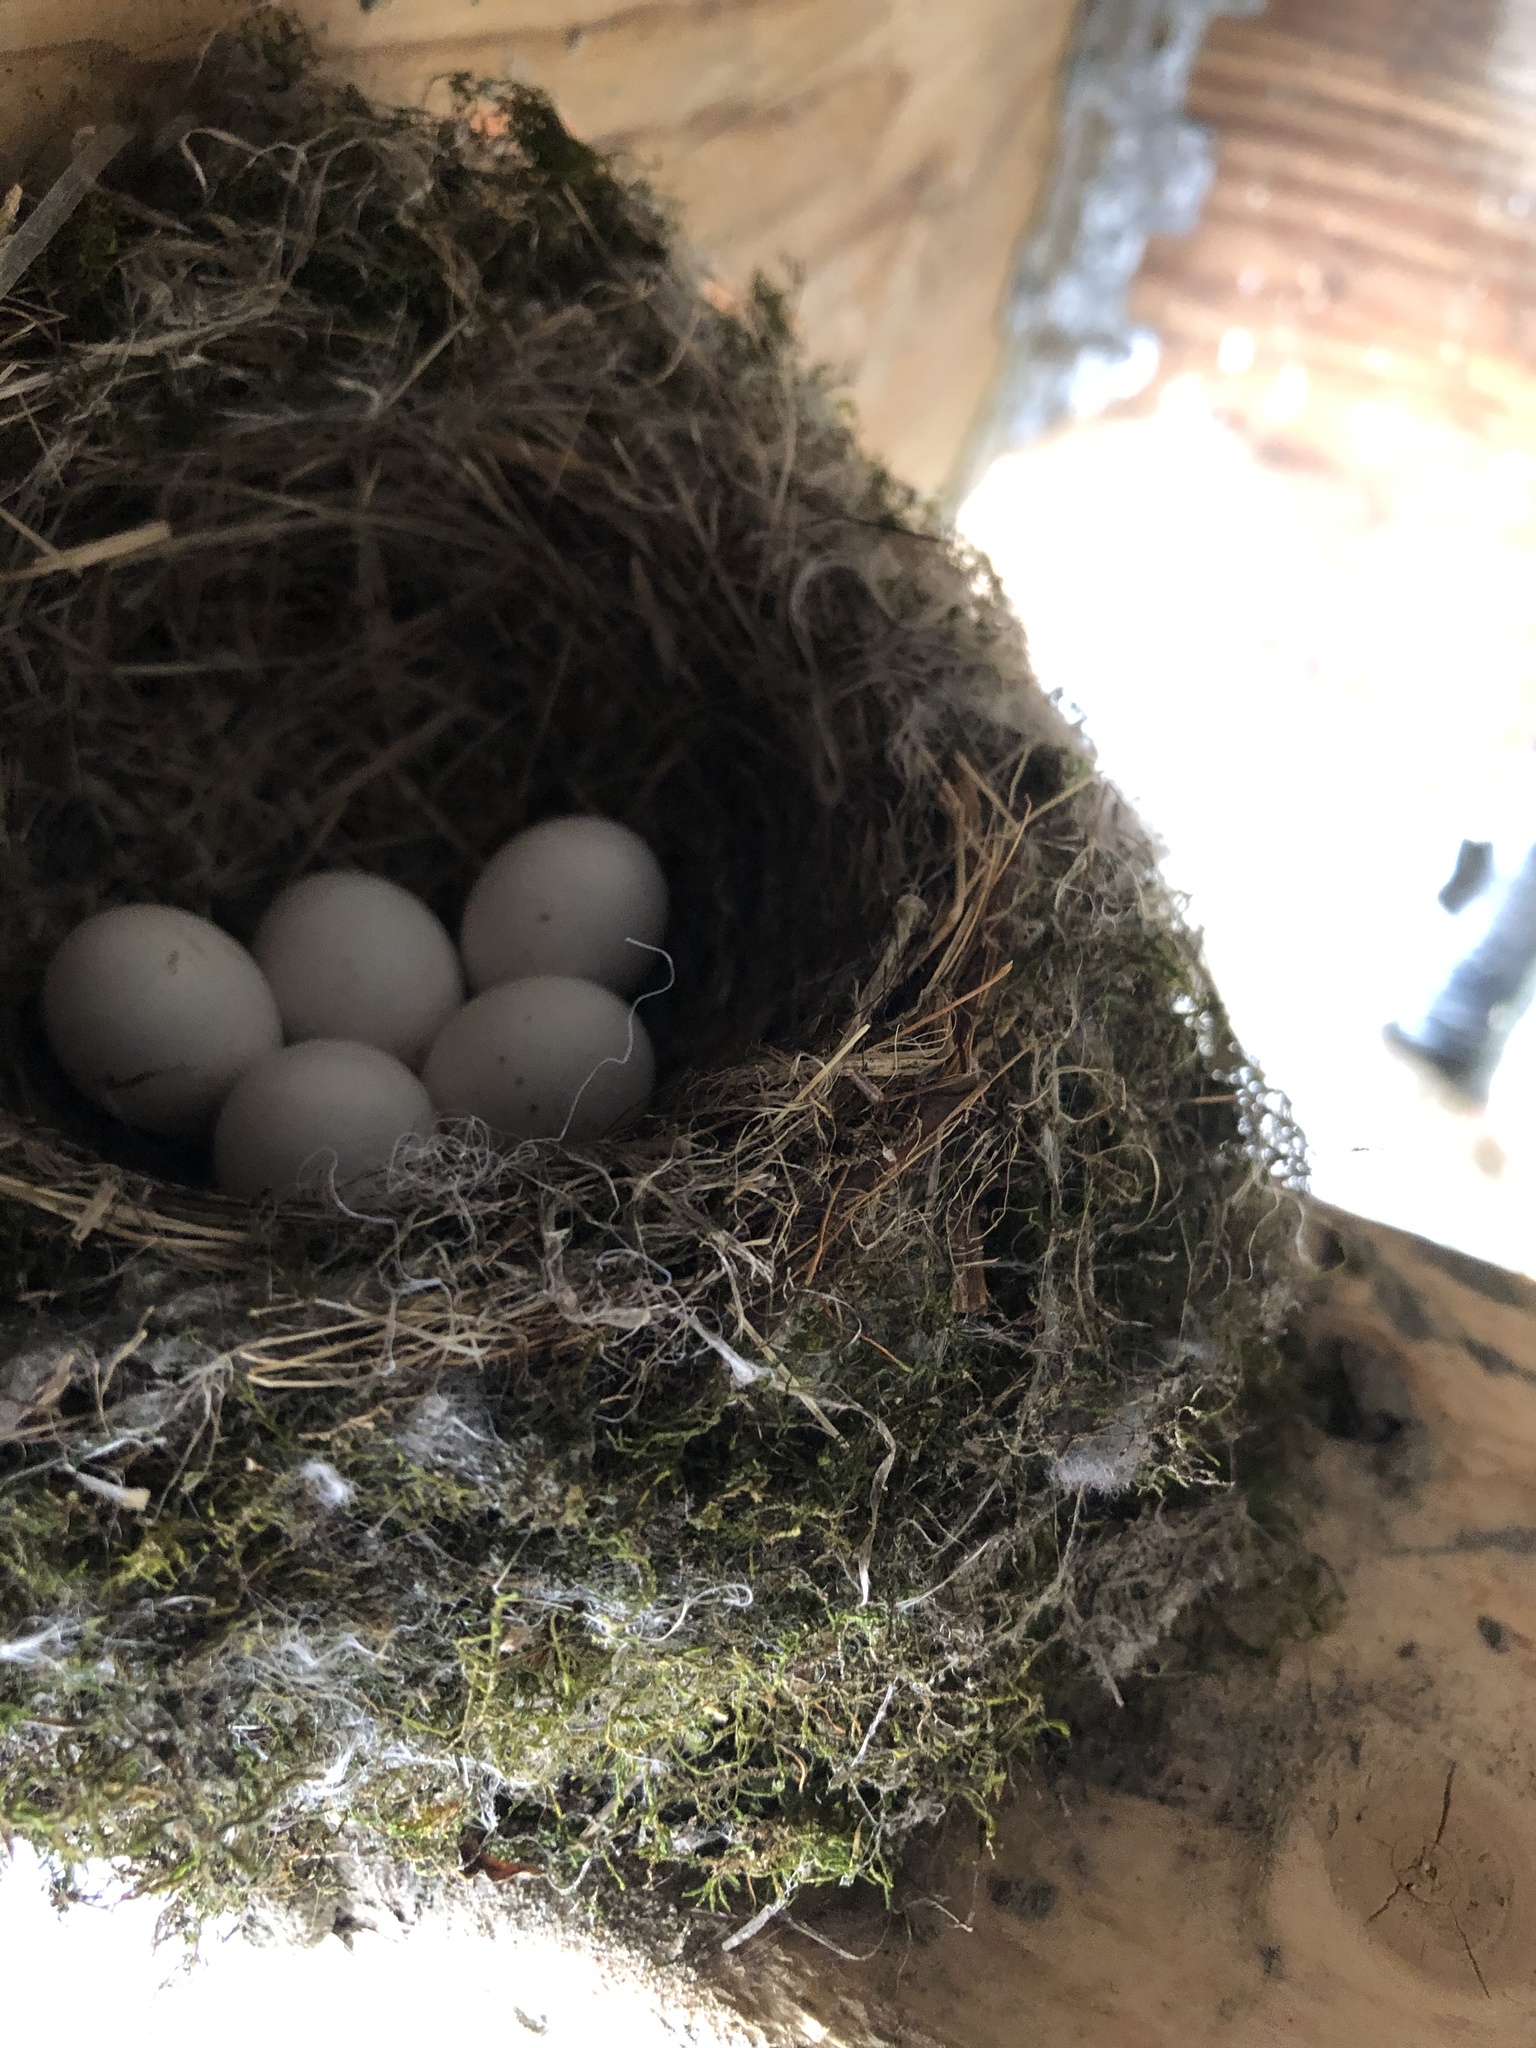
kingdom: Animalia
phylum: Chordata
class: Aves
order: Passeriformes
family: Tyrannidae
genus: Sayornis
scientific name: Sayornis phoebe
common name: Eastern phoebe
